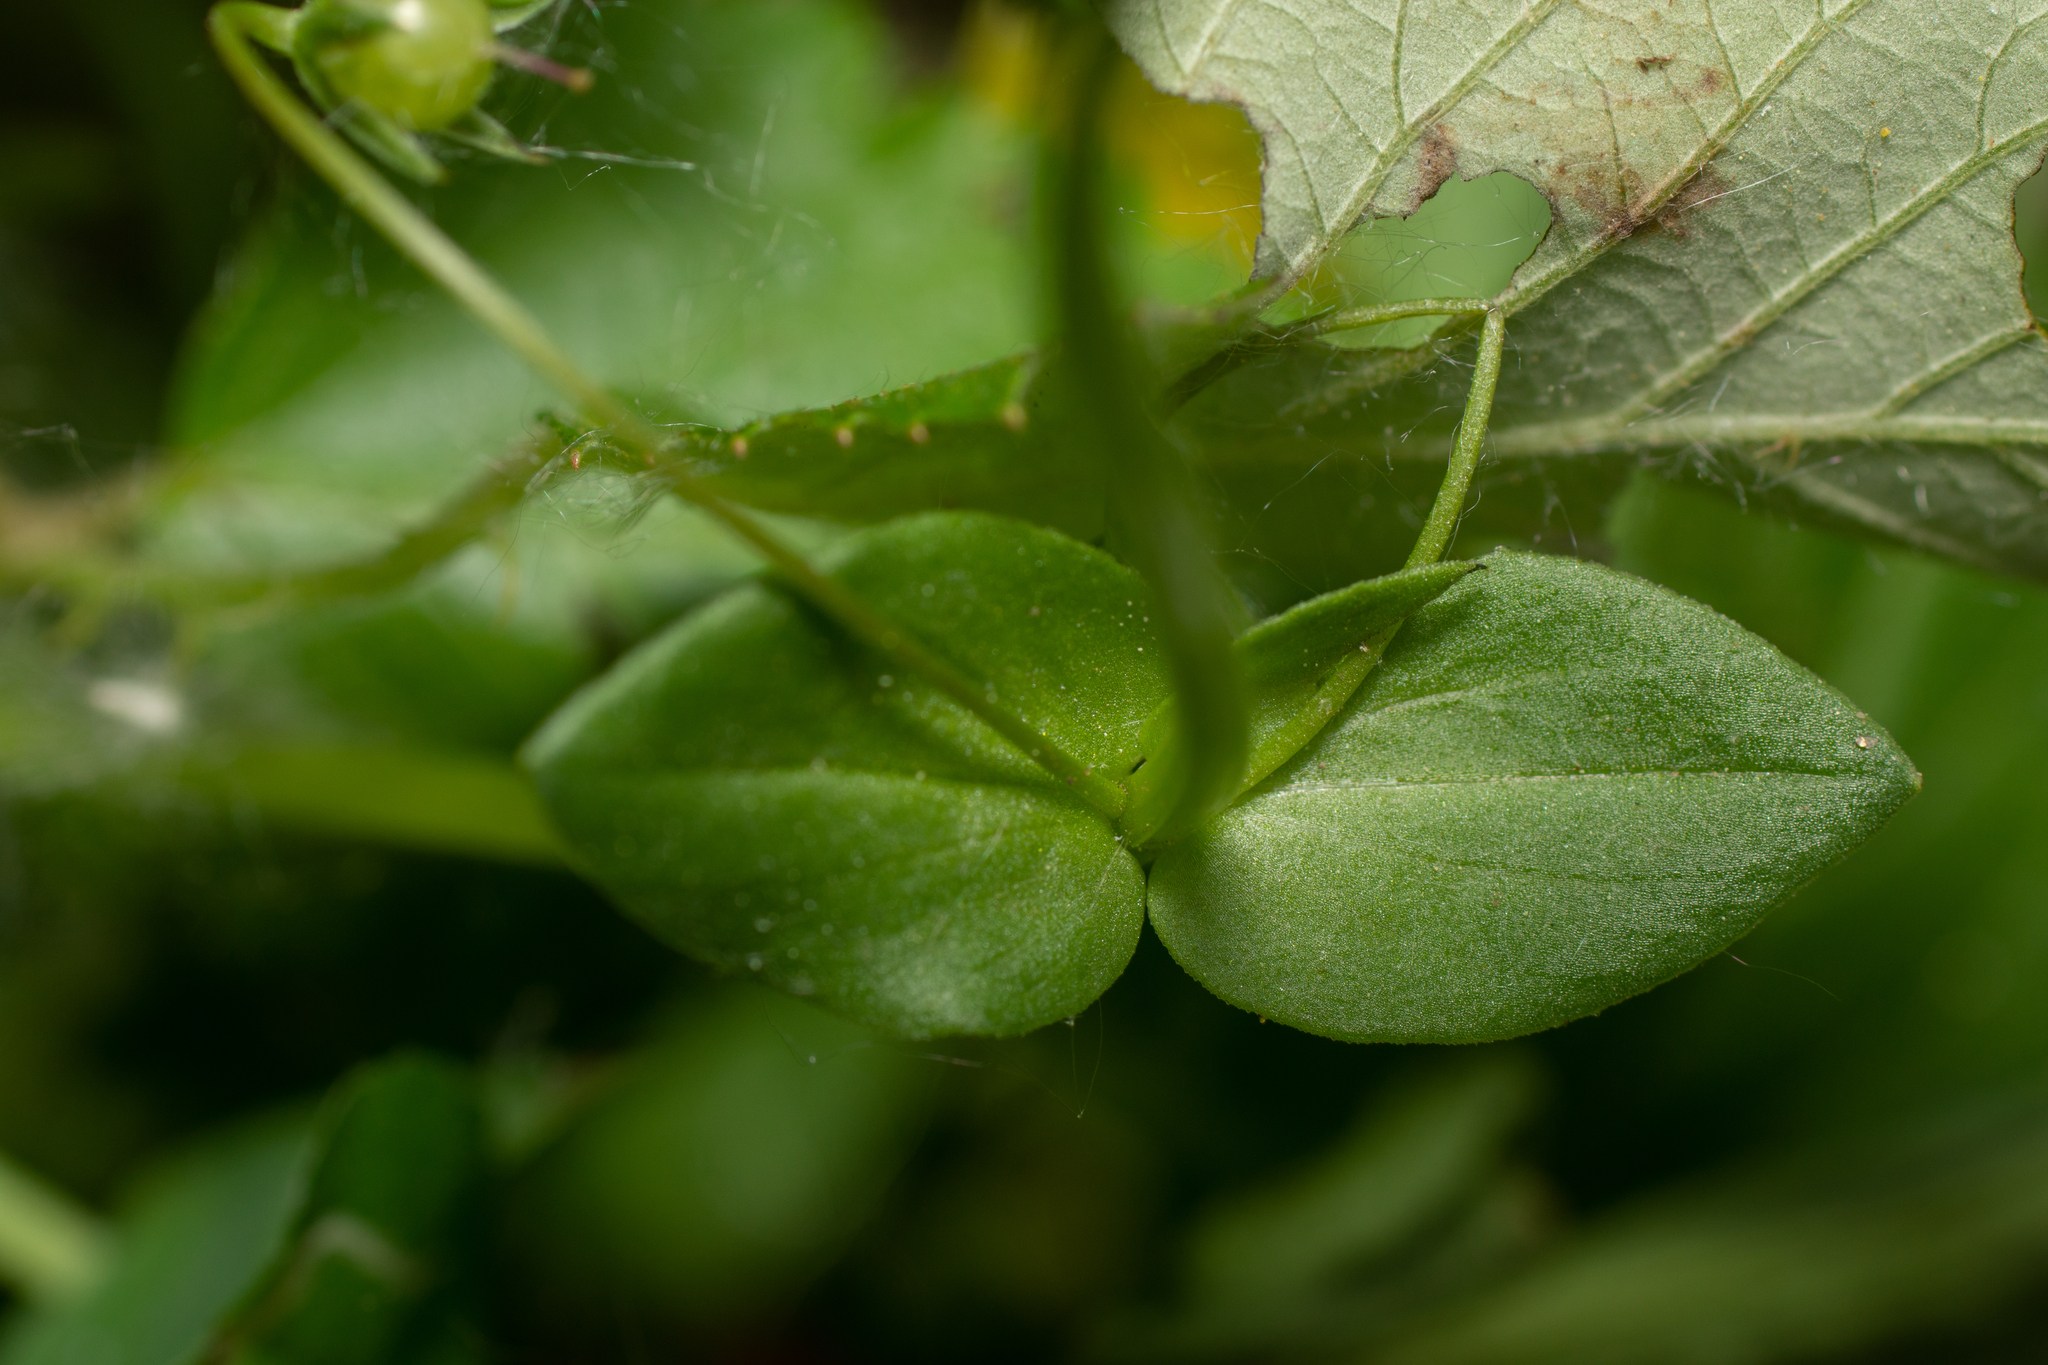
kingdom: Plantae
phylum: Tracheophyta
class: Magnoliopsida
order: Ericales
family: Primulaceae
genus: Lysimachia
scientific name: Lysimachia arvensis
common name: Scarlet pimpernel
